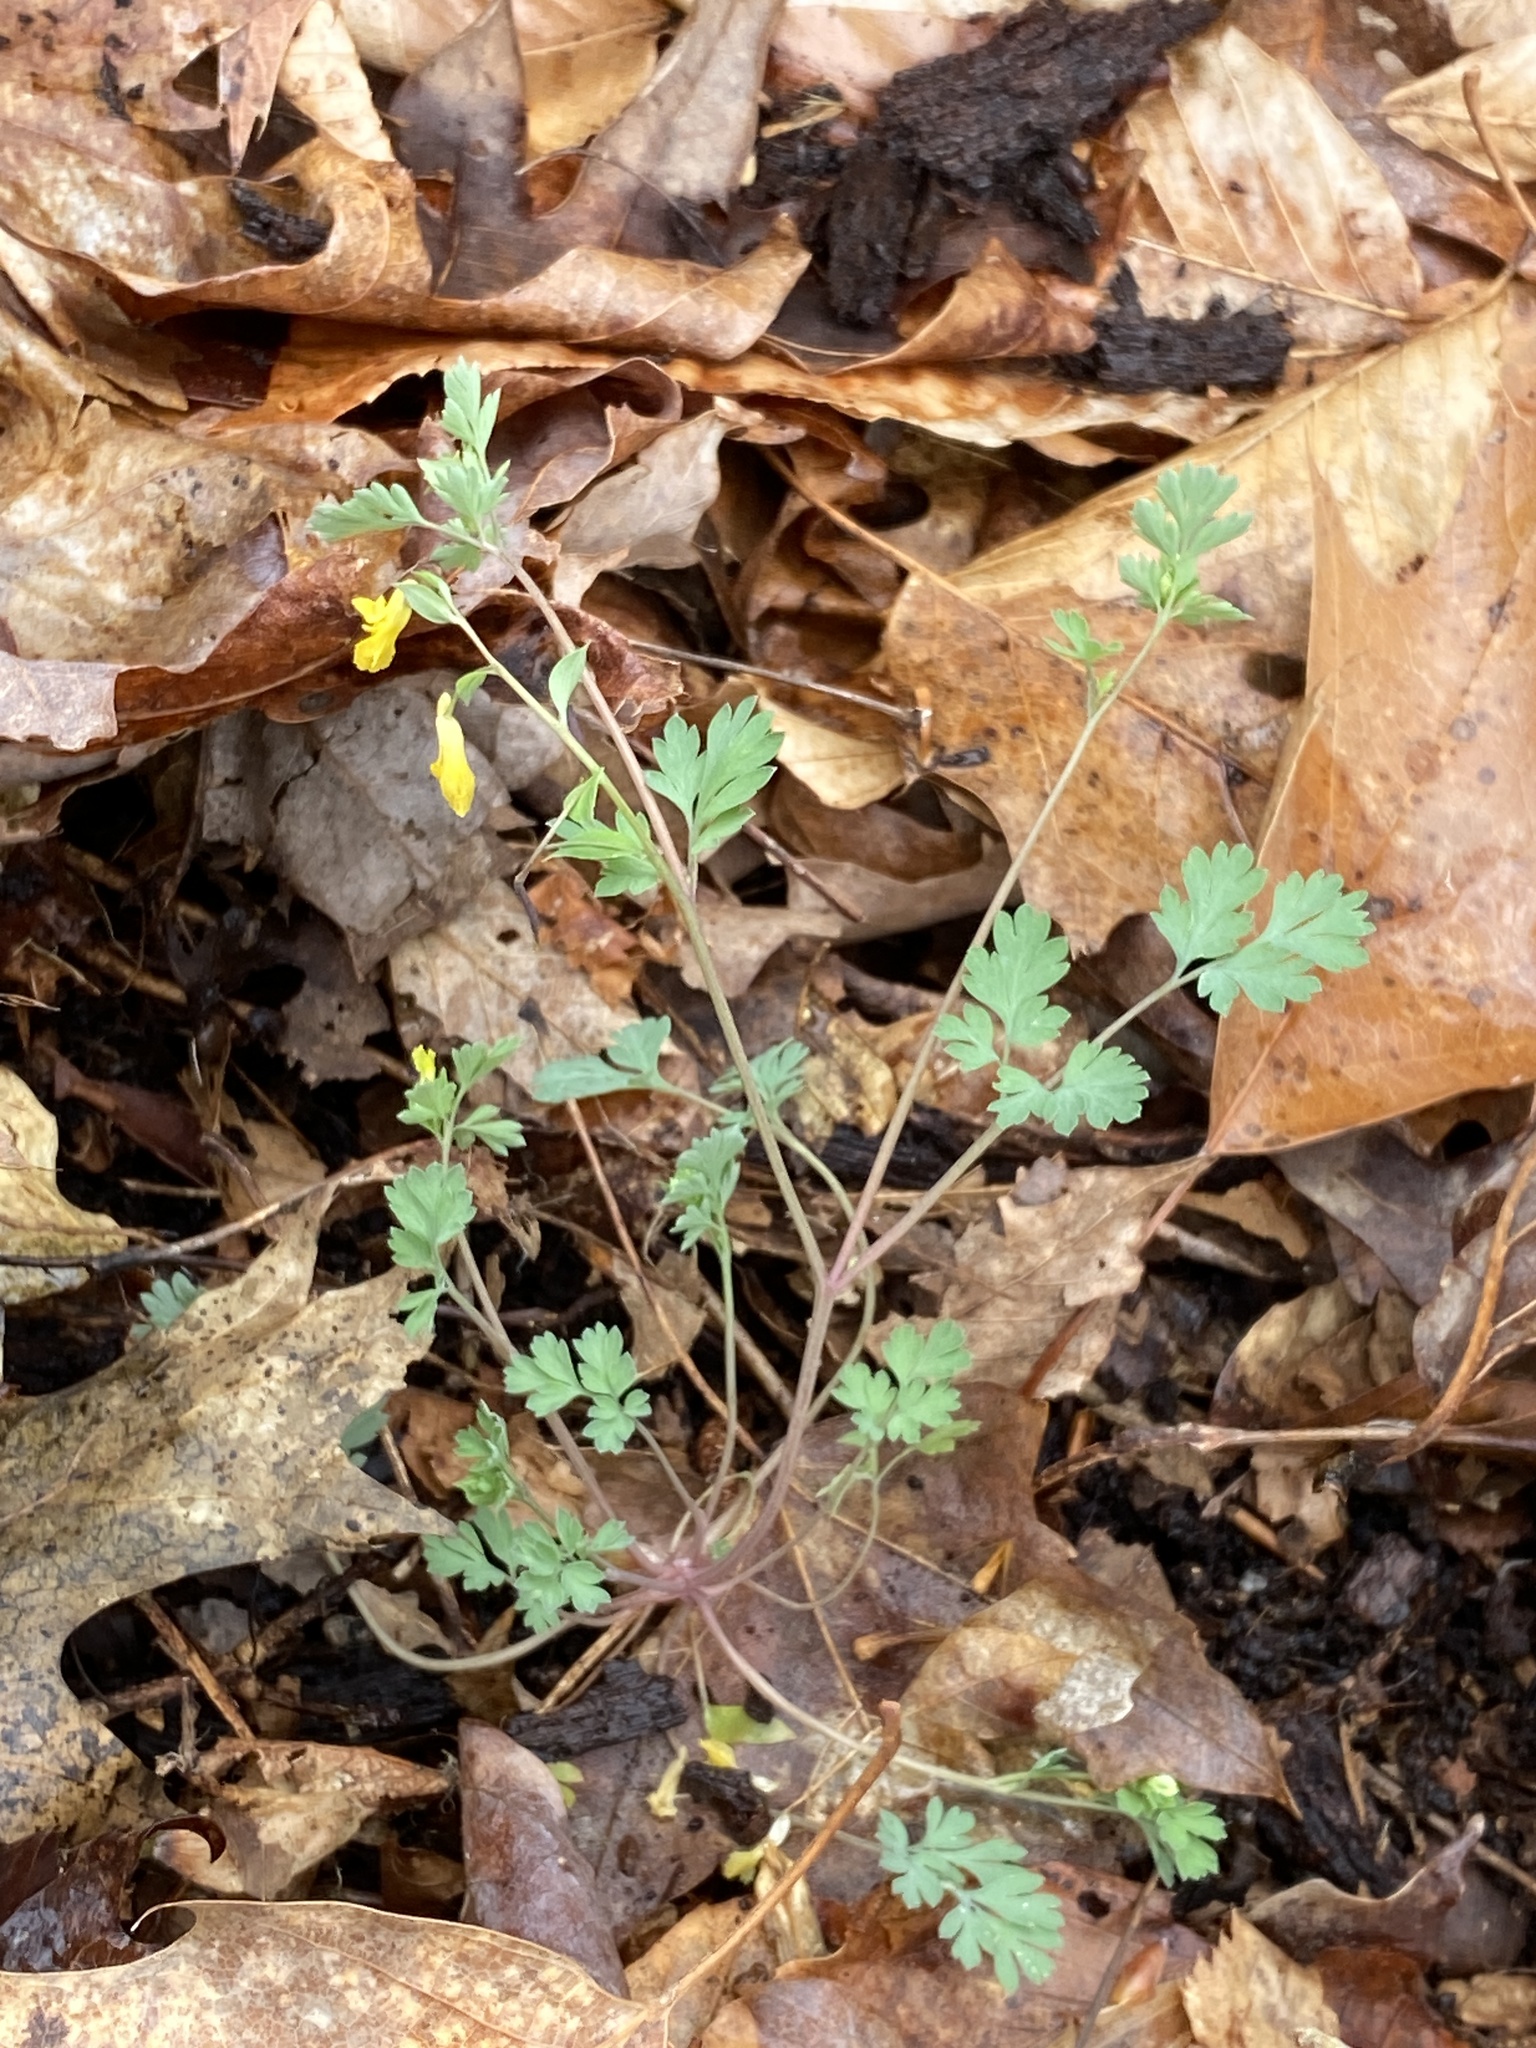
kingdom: Plantae
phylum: Tracheophyta
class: Magnoliopsida
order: Ranunculales
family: Papaveraceae
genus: Corydalis
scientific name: Corydalis flavula
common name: Yellow corydalis
